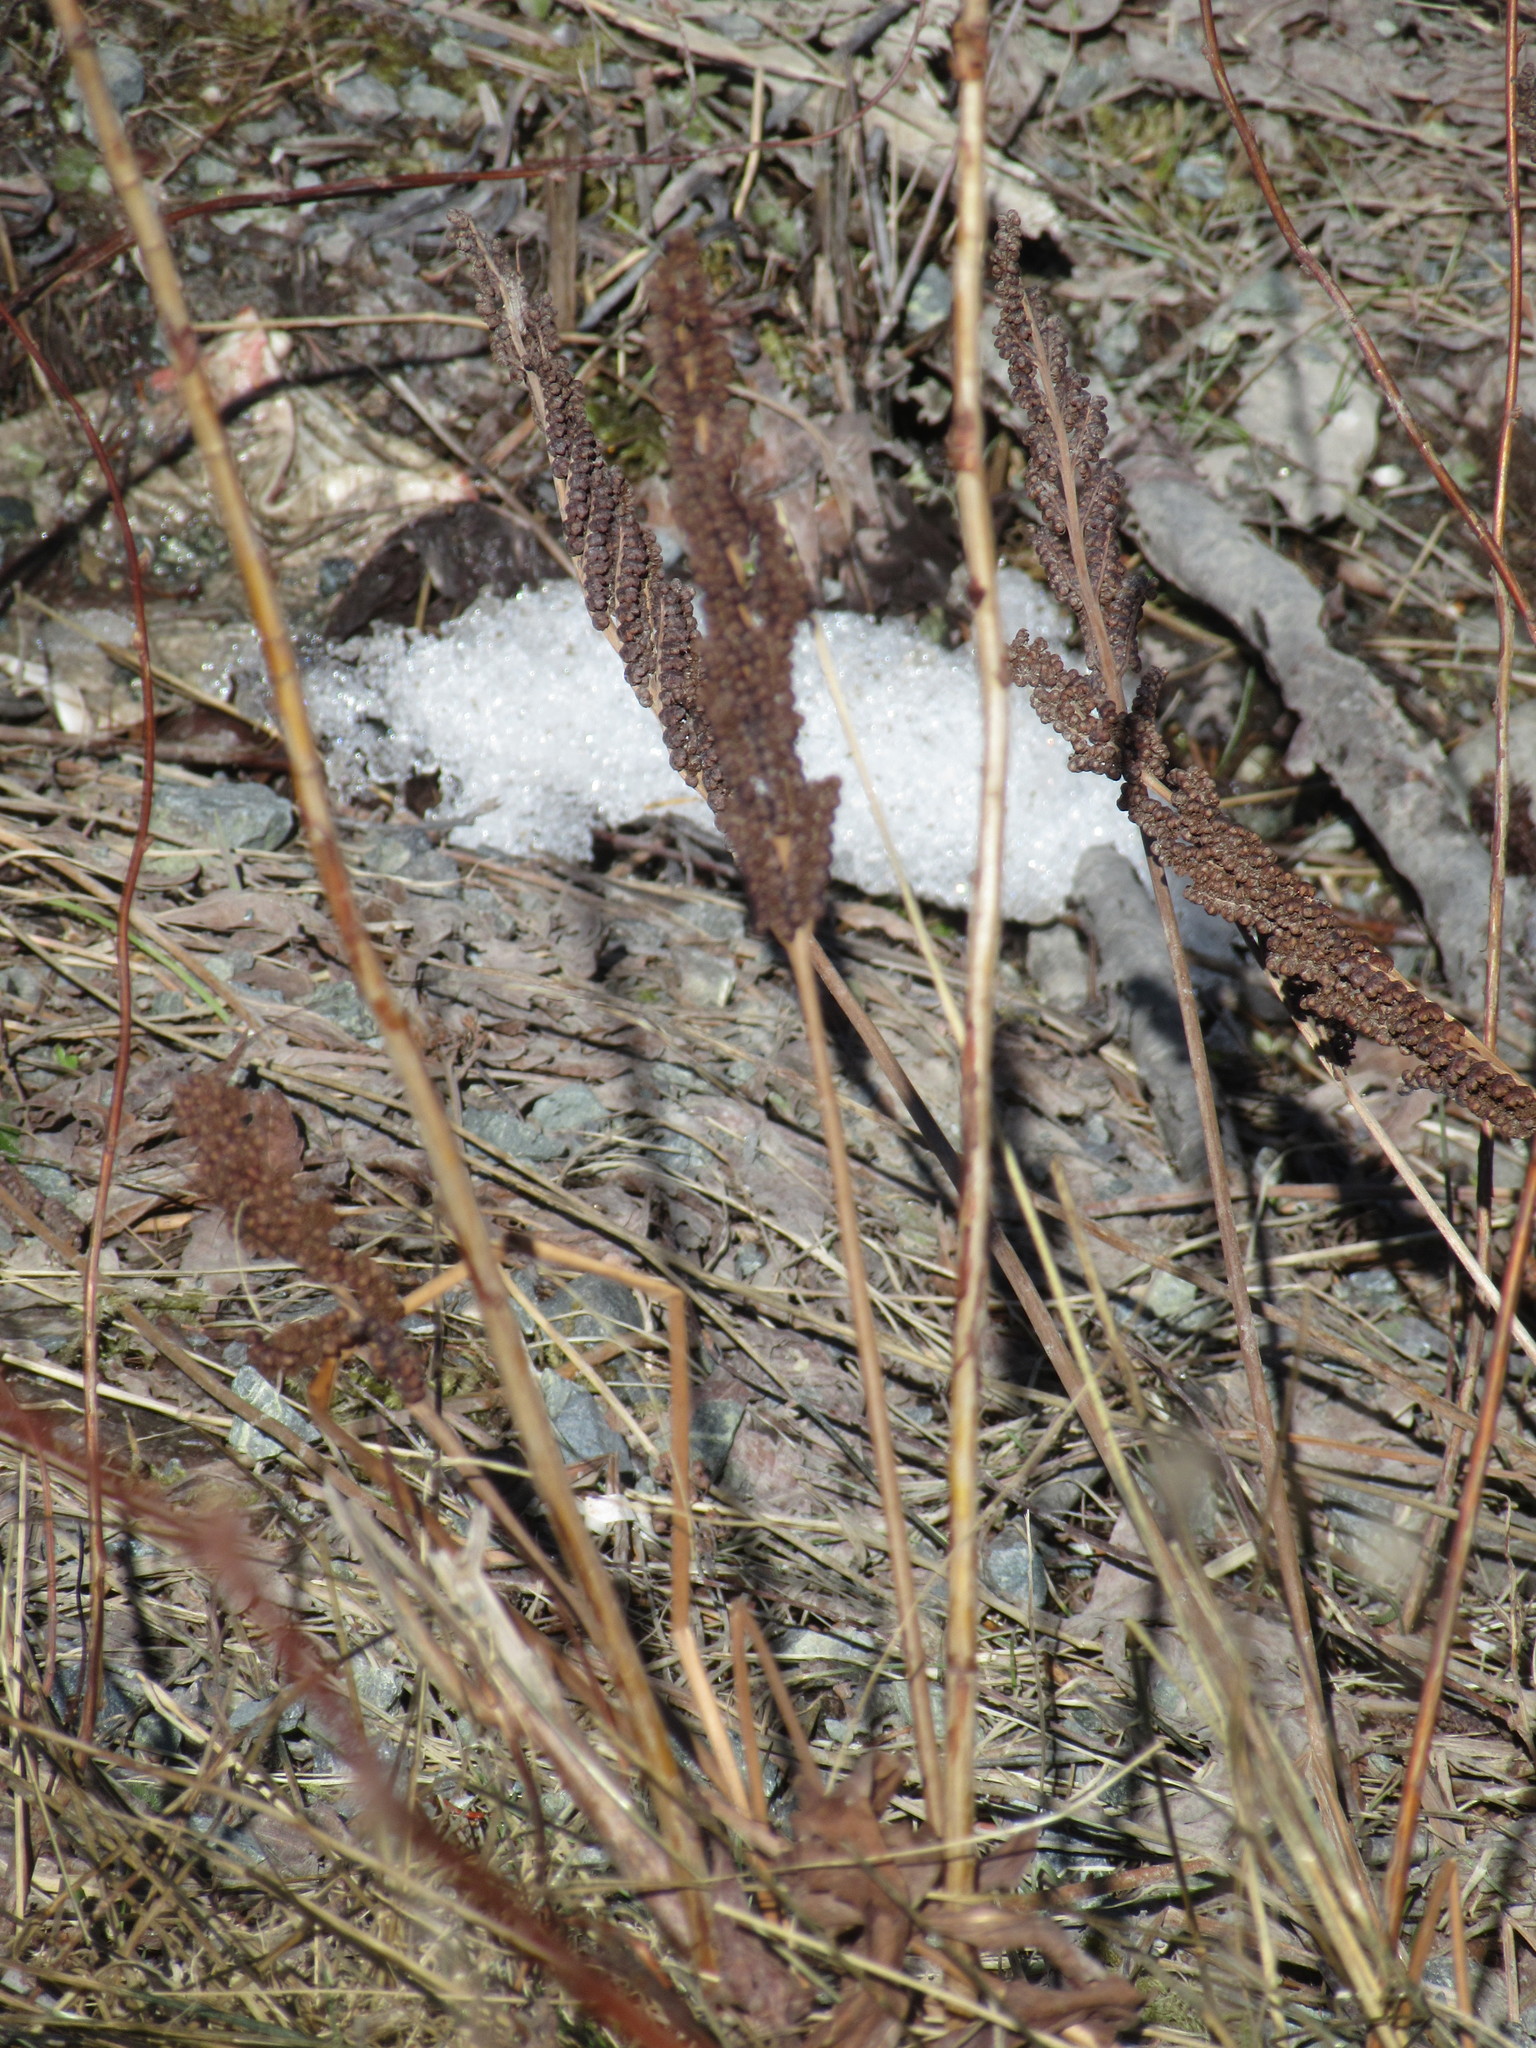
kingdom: Plantae
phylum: Tracheophyta
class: Polypodiopsida
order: Polypodiales
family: Onocleaceae
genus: Onoclea
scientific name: Onoclea sensibilis
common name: Sensitive fern
